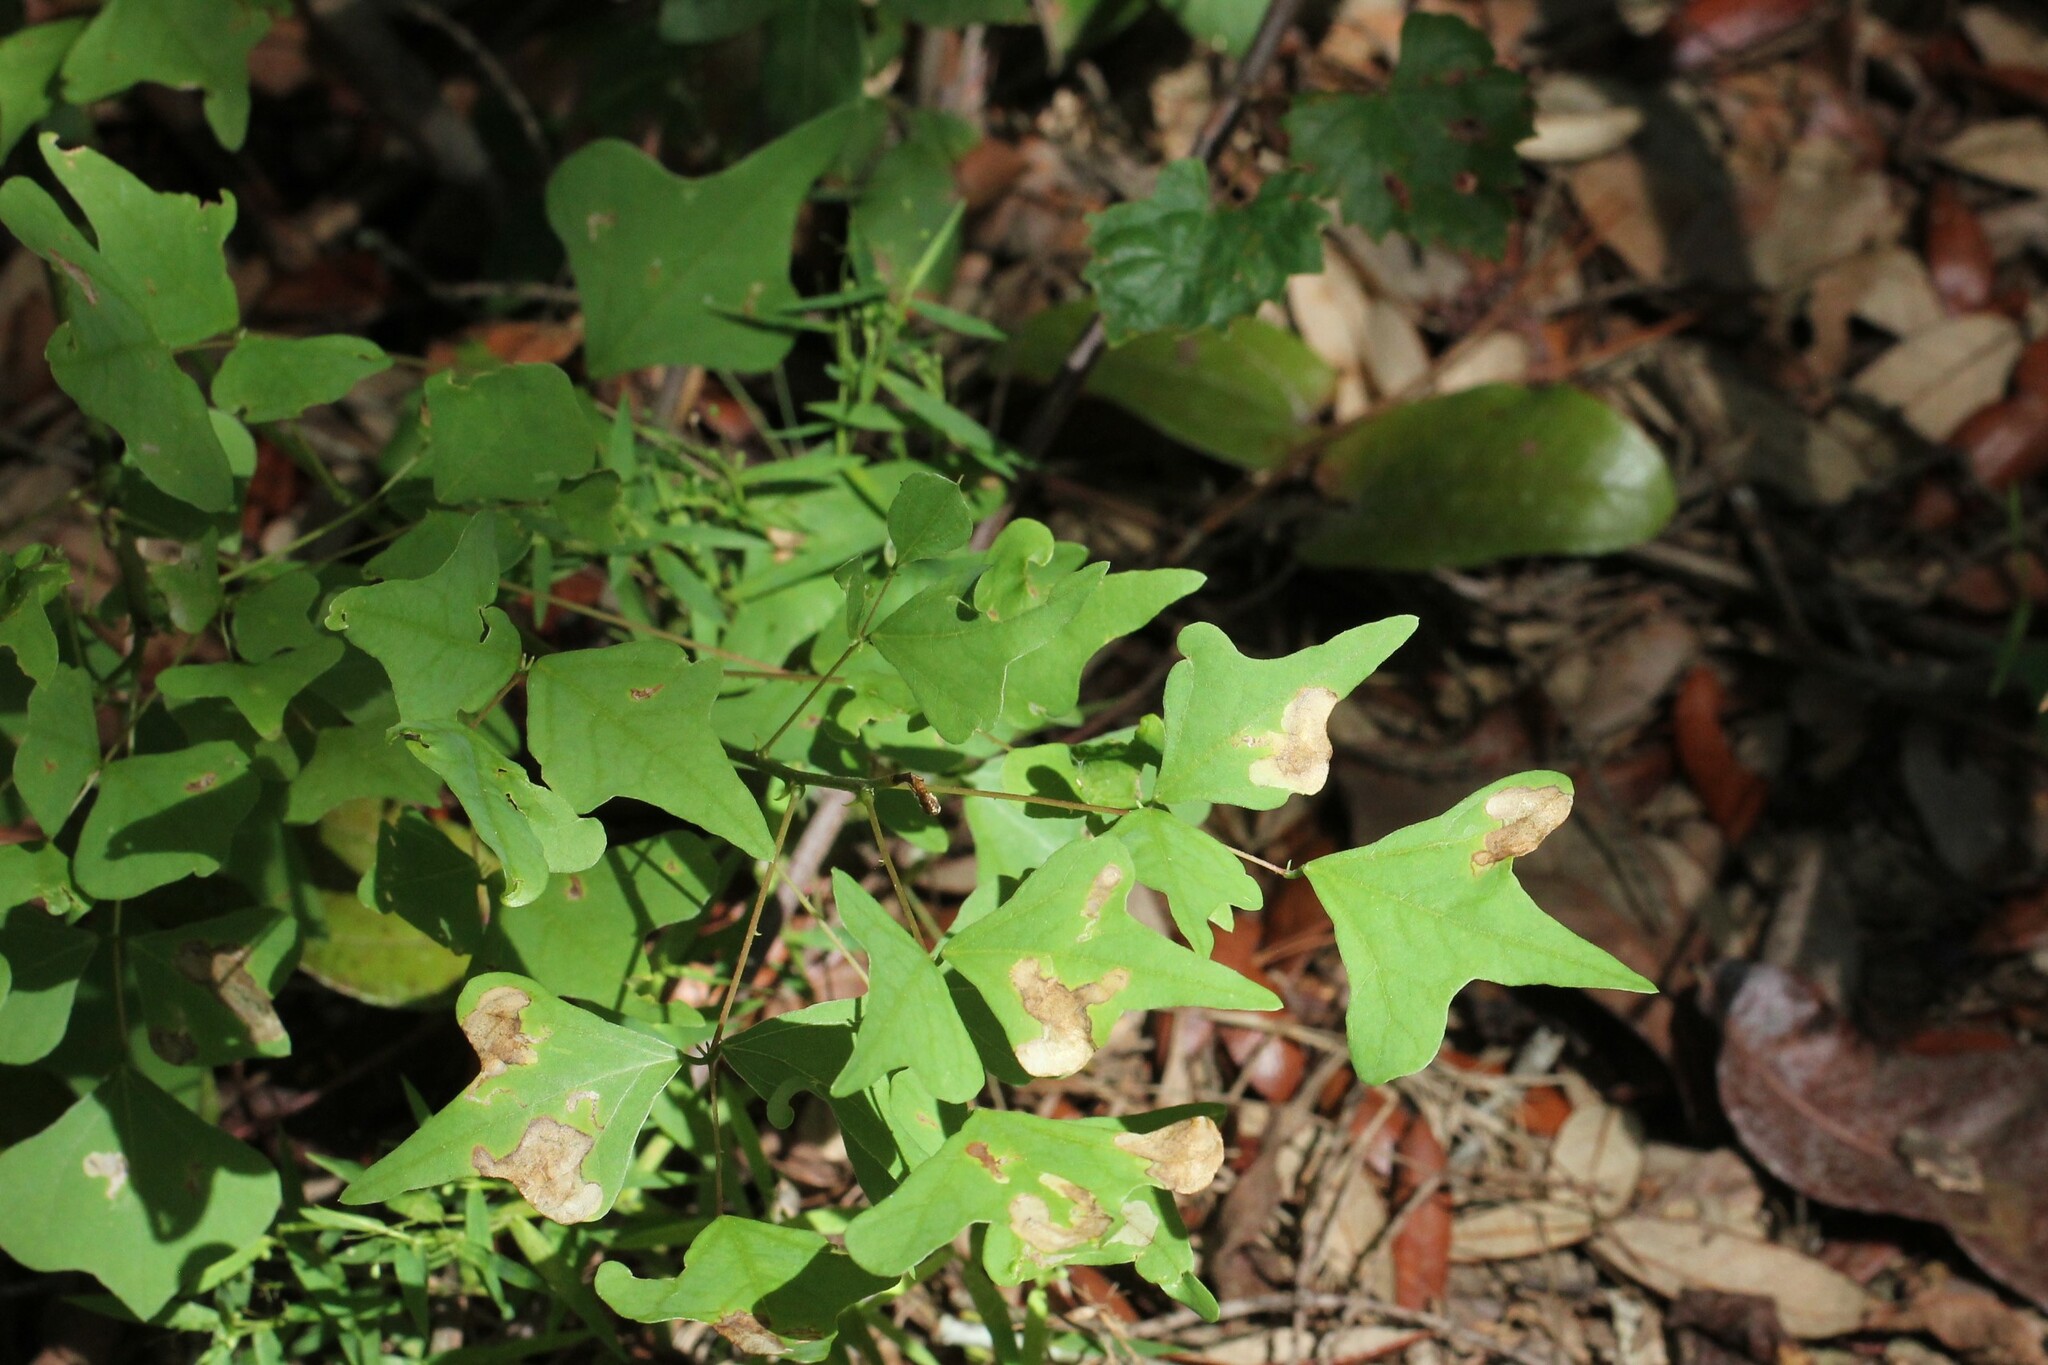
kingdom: Plantae
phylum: Tracheophyta
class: Magnoliopsida
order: Fabales
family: Fabaceae
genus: Erythrina
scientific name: Erythrina herbacea
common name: Coral-bean
